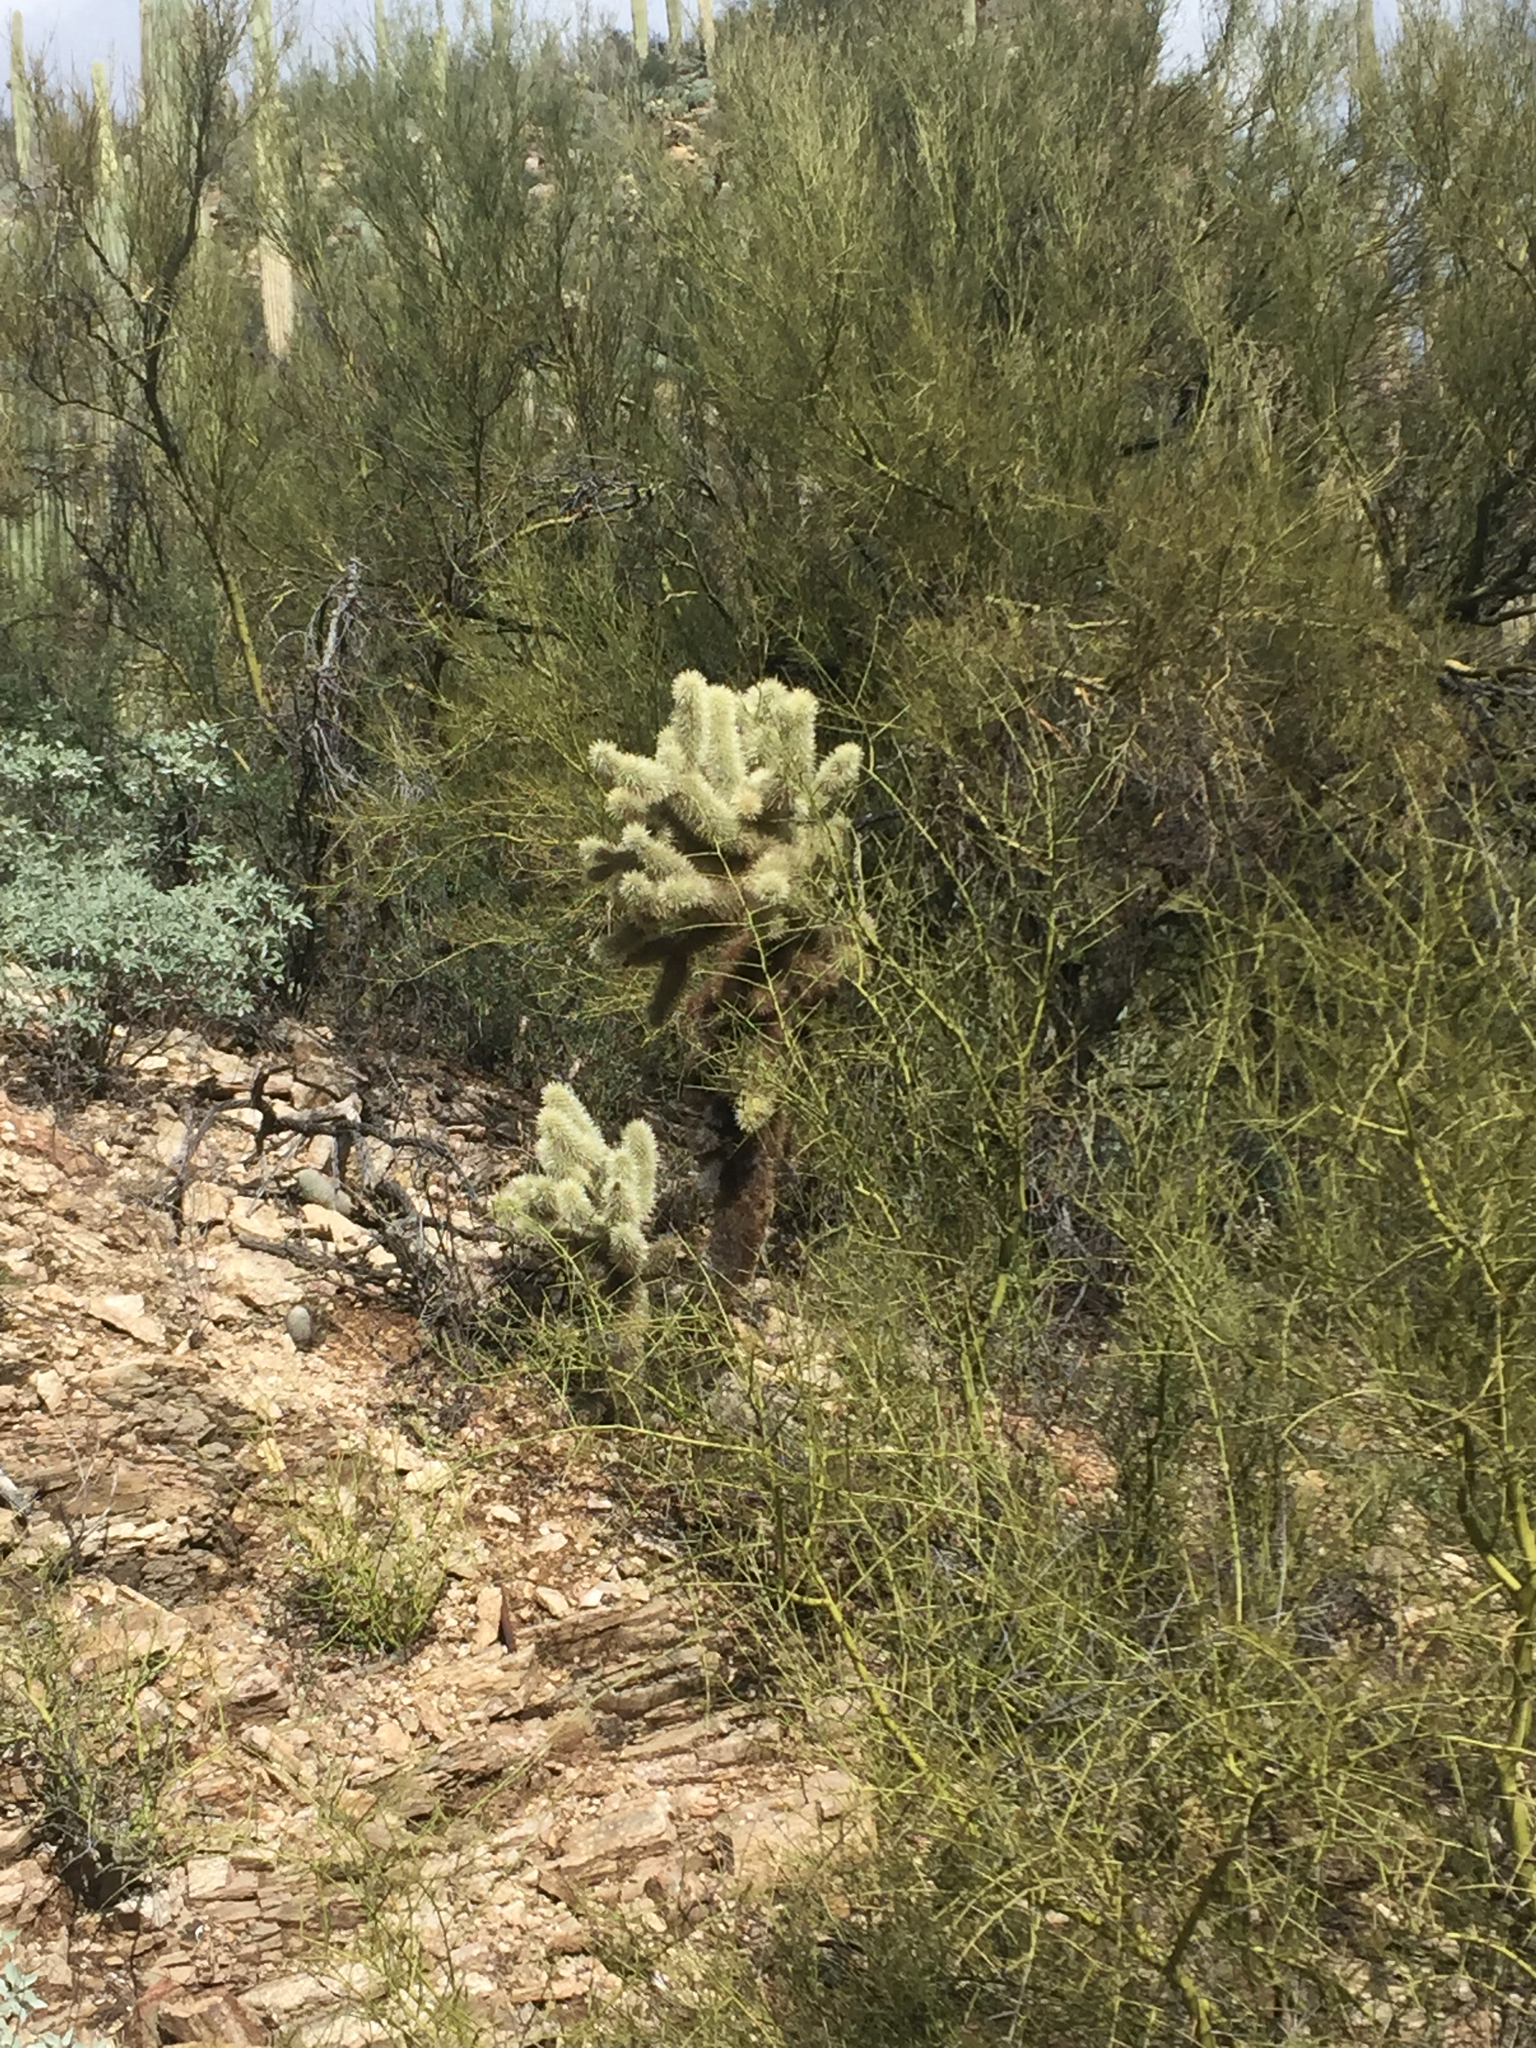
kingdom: Plantae
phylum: Tracheophyta
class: Magnoliopsida
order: Caryophyllales
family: Cactaceae
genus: Cylindropuntia
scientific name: Cylindropuntia fosbergii
